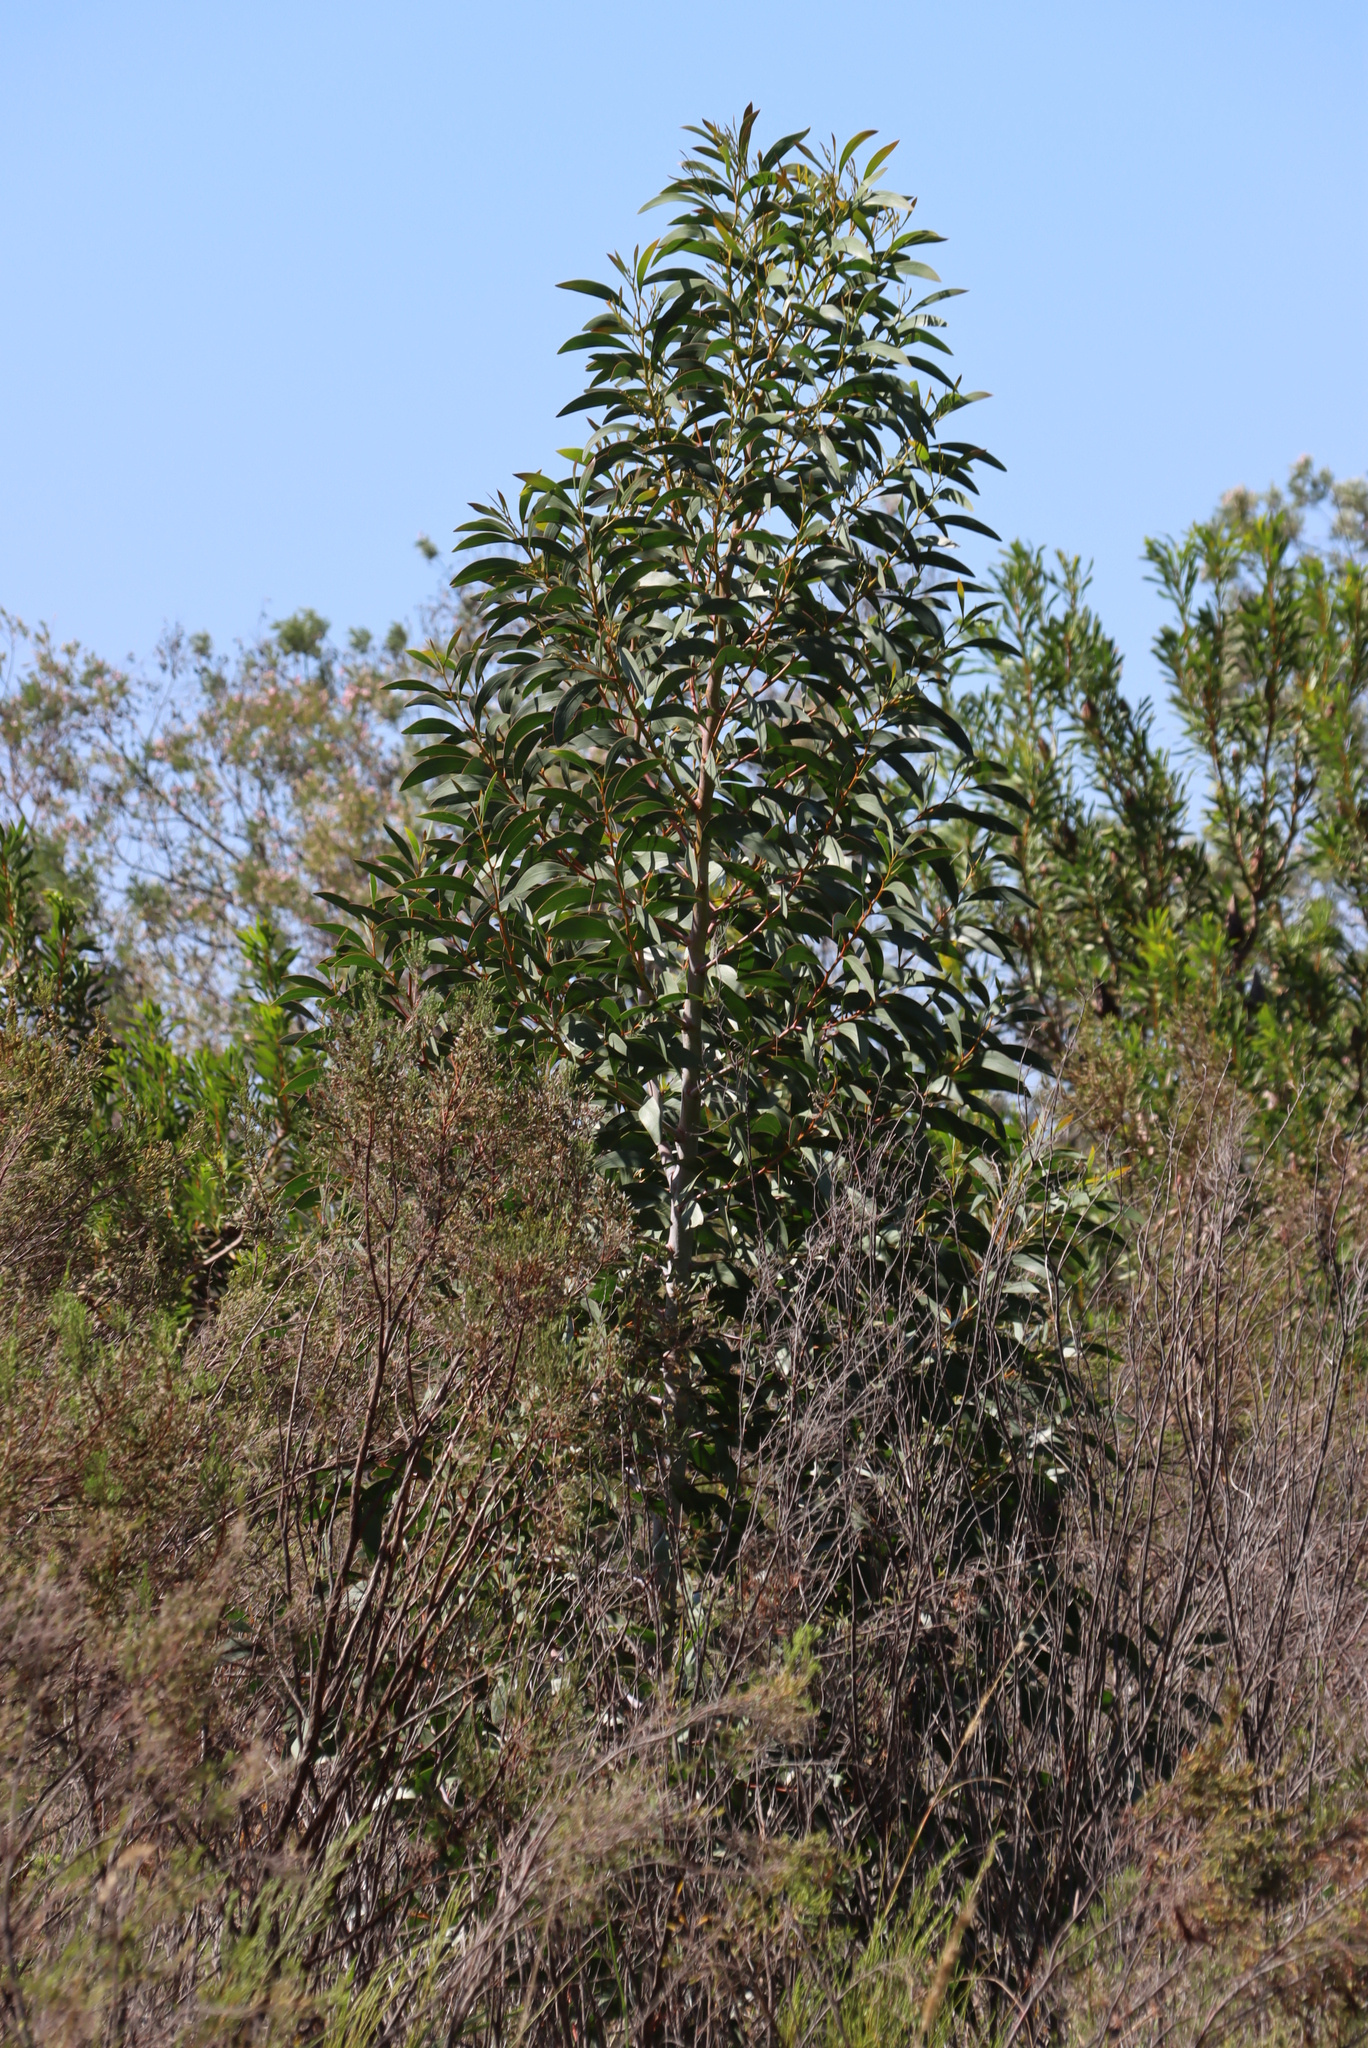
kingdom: Plantae
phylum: Tracheophyta
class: Magnoliopsida
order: Fabales
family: Fabaceae
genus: Acacia
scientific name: Acacia pycnantha
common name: Golden wattle
